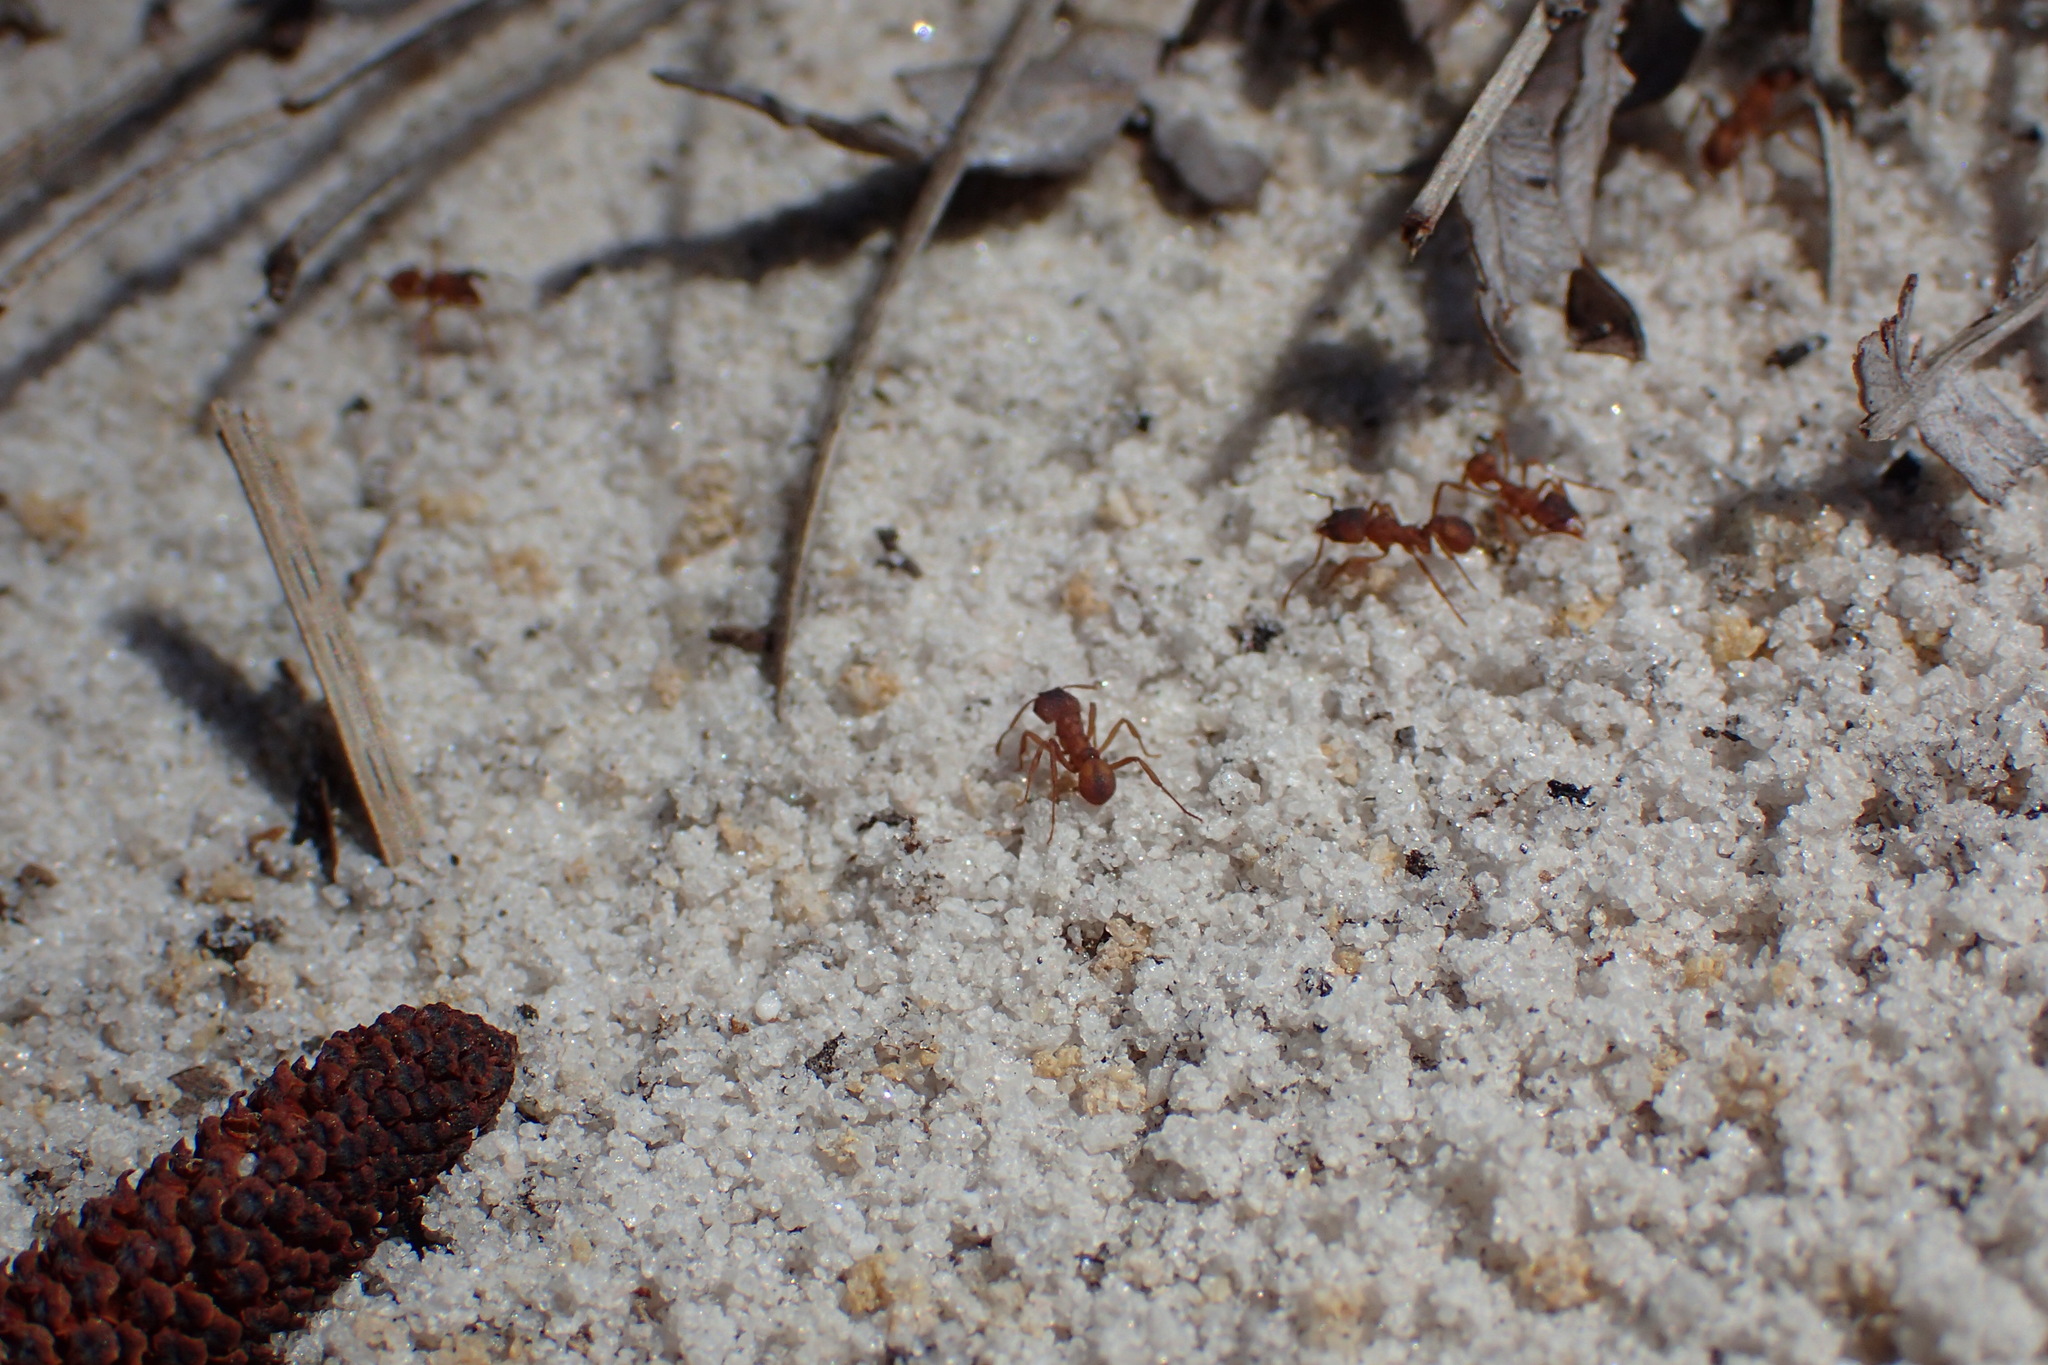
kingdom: Animalia
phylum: Arthropoda
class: Insecta
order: Hymenoptera
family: Formicidae
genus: Trachymyrmex
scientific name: Trachymyrmex septentrionalis
